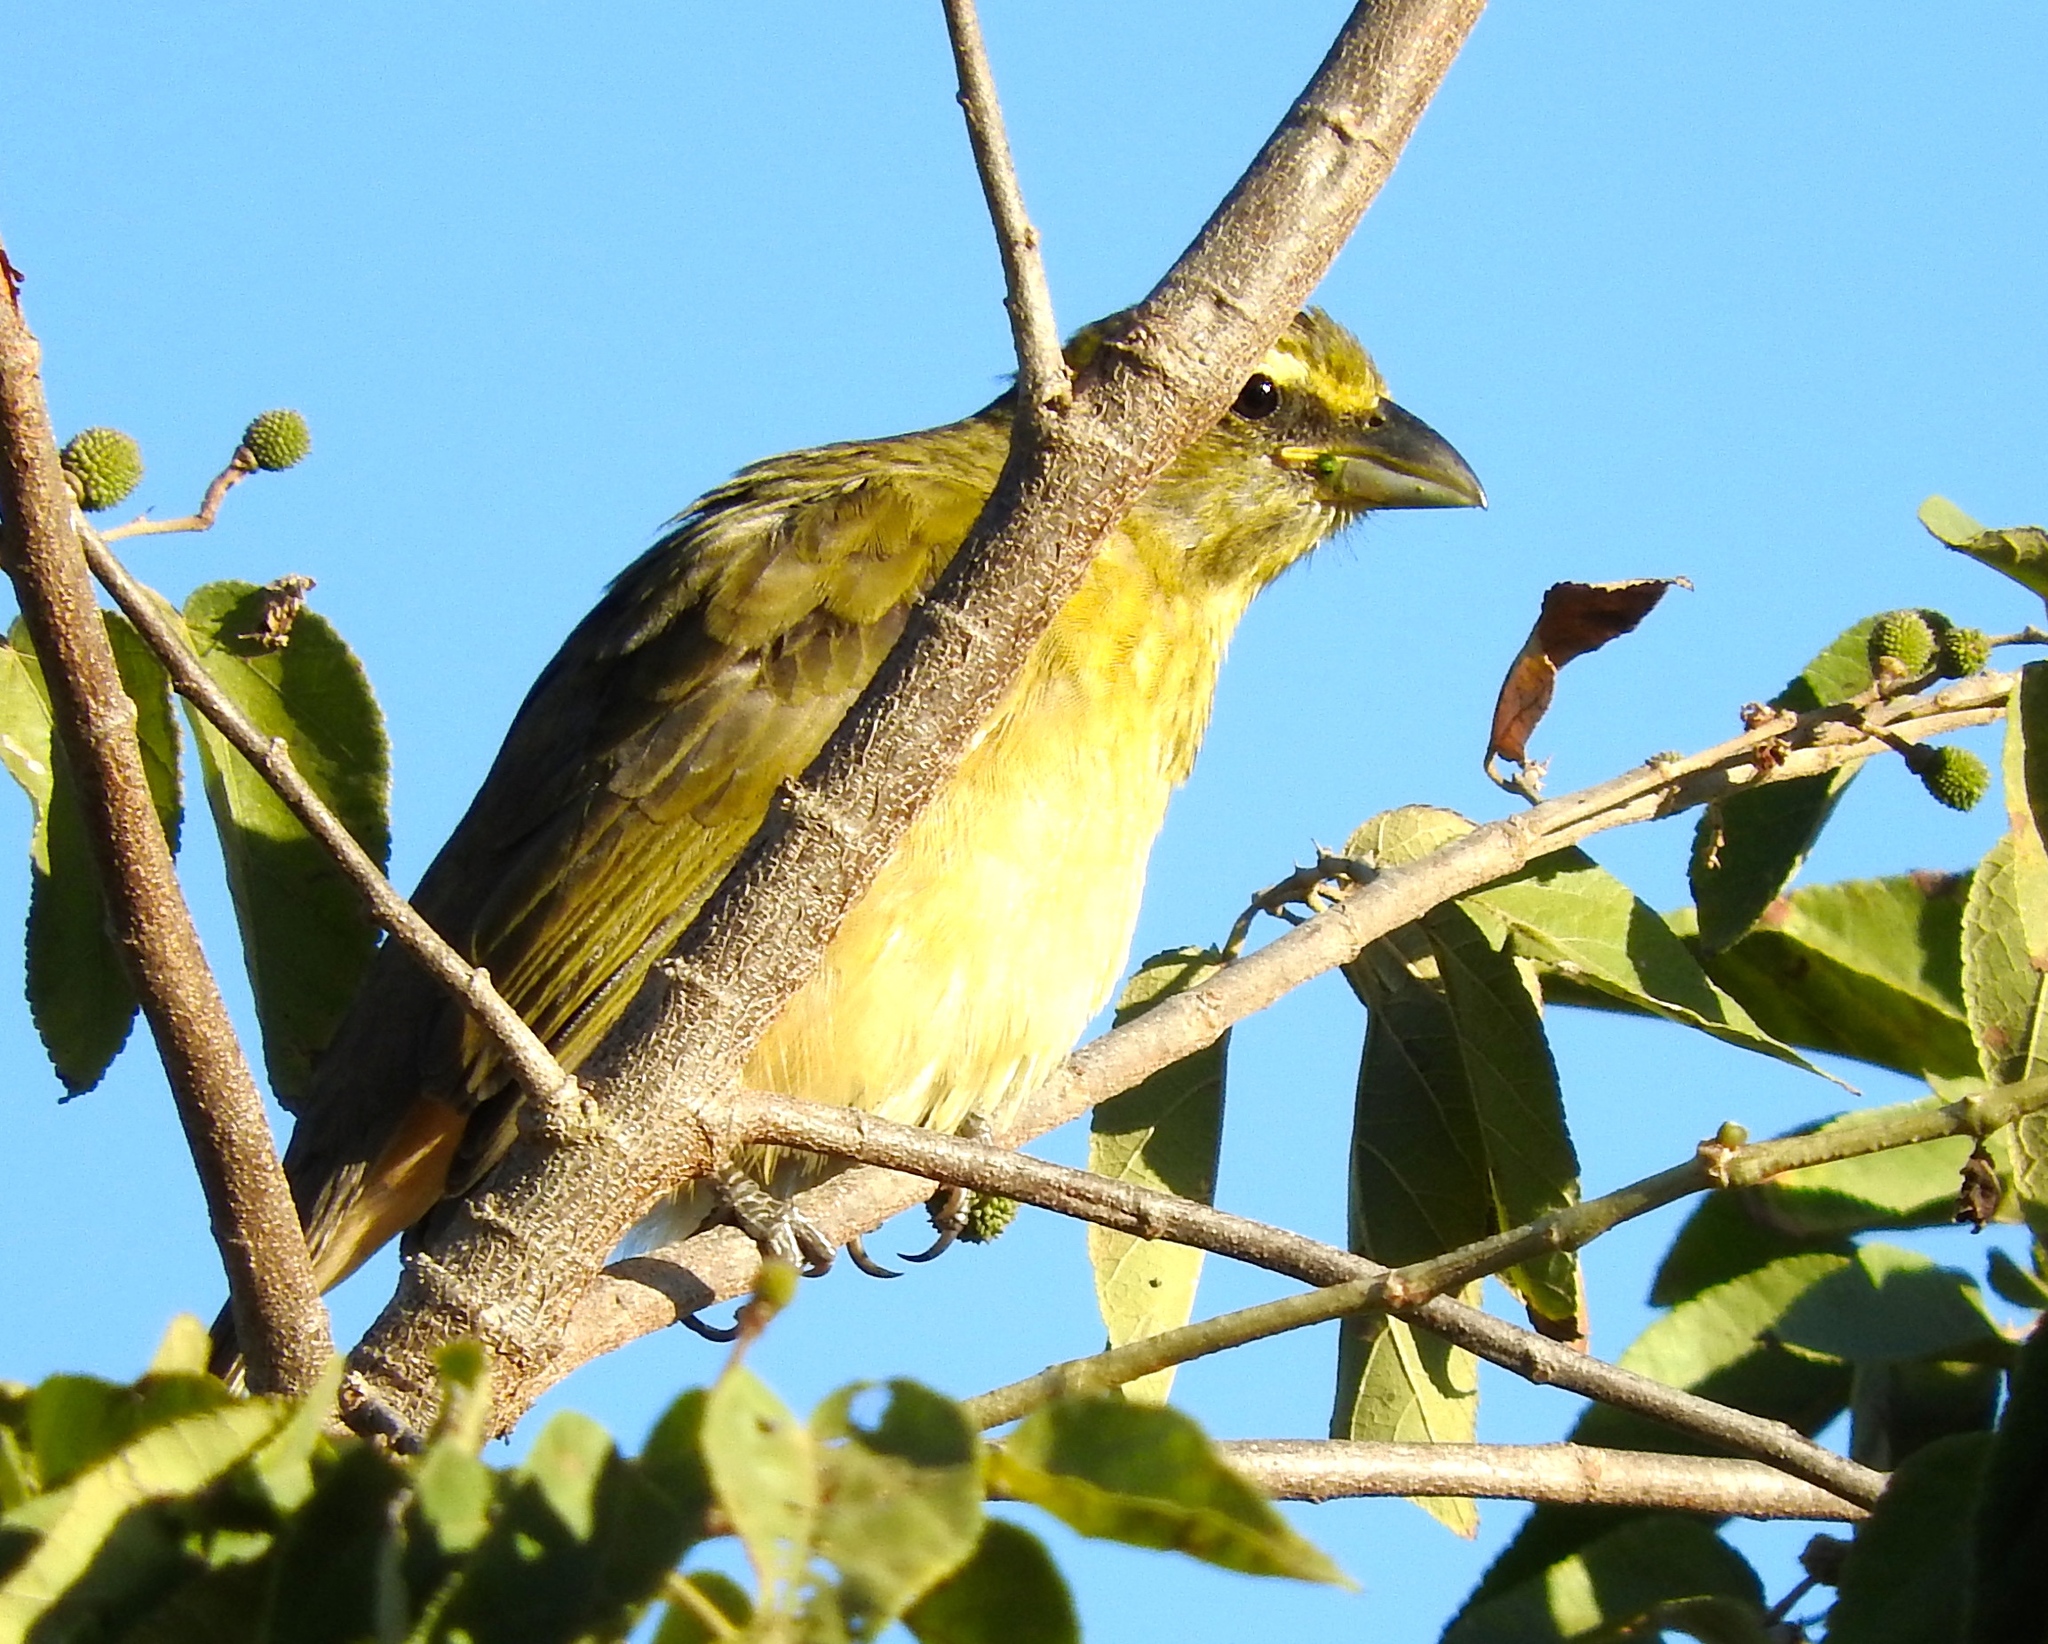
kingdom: Animalia
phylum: Chordata
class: Aves
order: Passeriformes
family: Thraupidae
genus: Saltator
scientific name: Saltator grandis
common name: Cinnamon-bellied saltator
